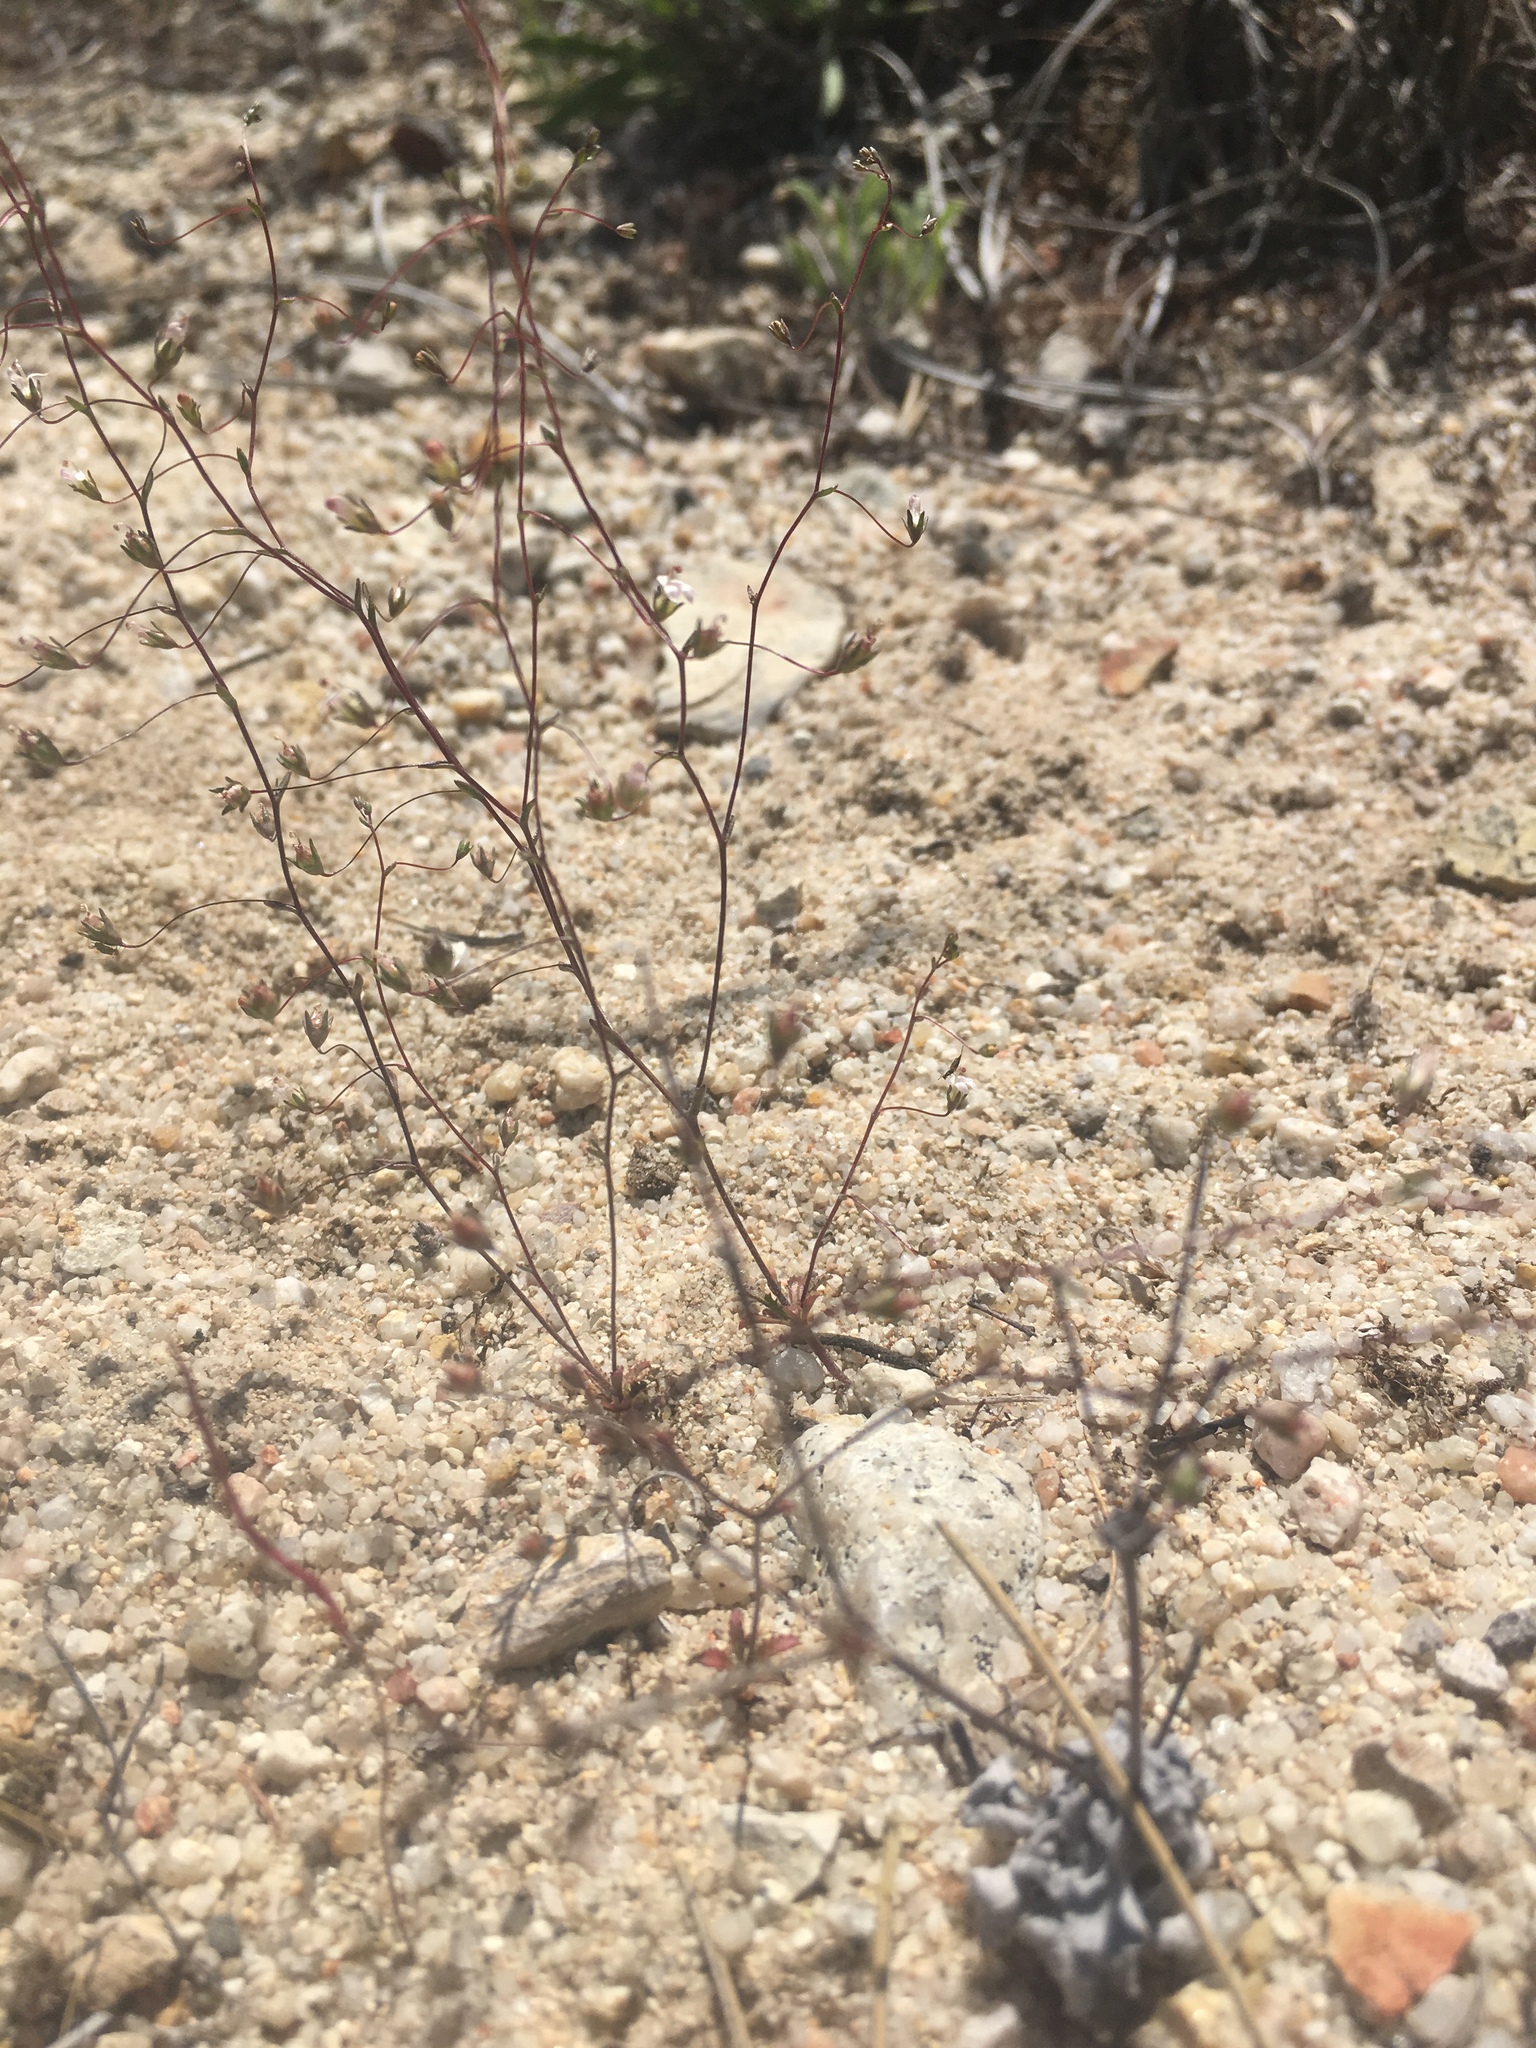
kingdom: Plantae
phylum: Tracheophyta
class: Magnoliopsida
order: Asterales
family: Campanulaceae
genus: Nemacladus
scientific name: Nemacladus secundiflorus
